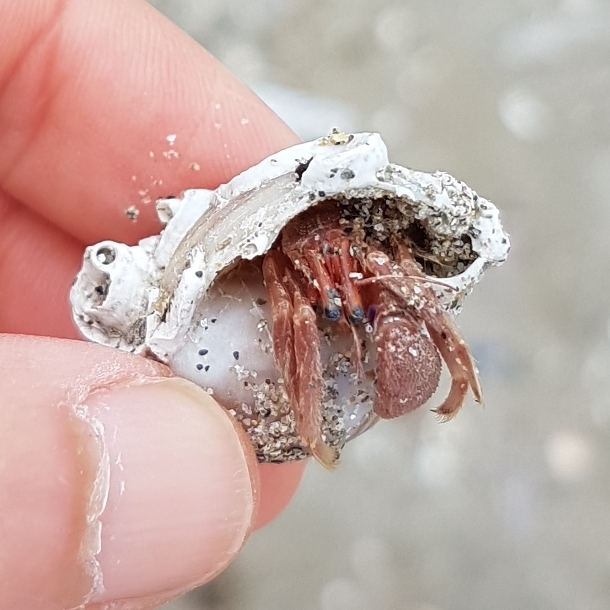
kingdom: Animalia
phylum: Arthropoda
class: Malacostraca
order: Decapoda
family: Diogenidae
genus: Paguristes
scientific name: Paguristes eremita
